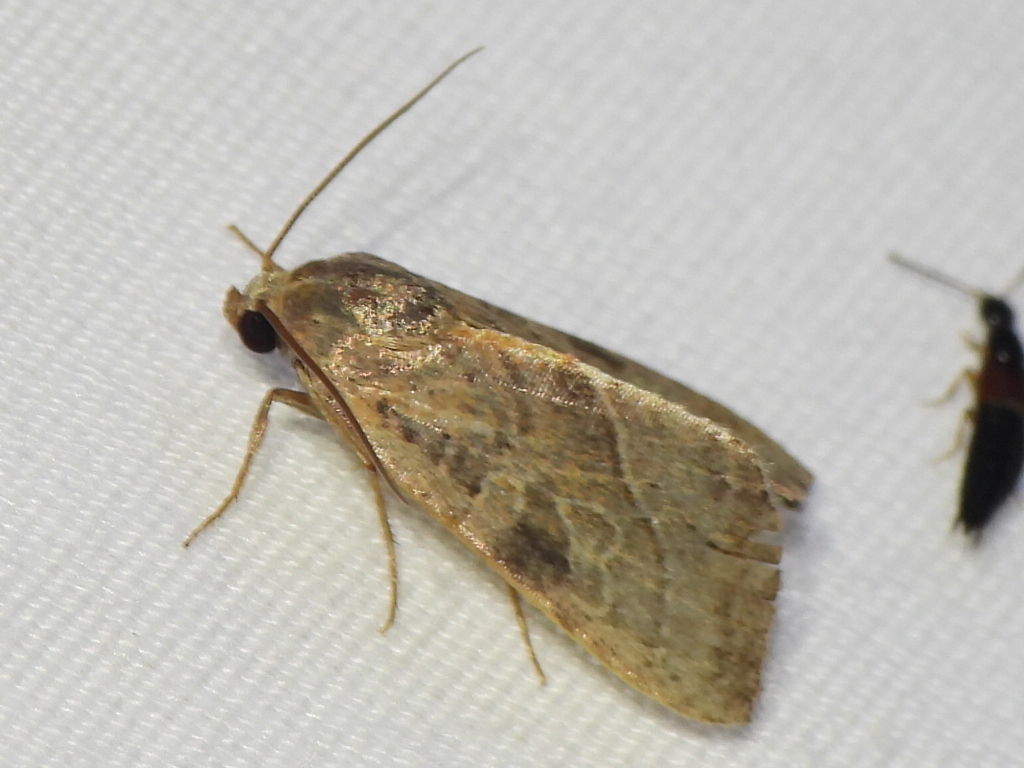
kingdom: Animalia
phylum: Arthropoda
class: Insecta
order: Lepidoptera
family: Noctuidae
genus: Galgula
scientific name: Galgula partita
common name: Wedgeling
